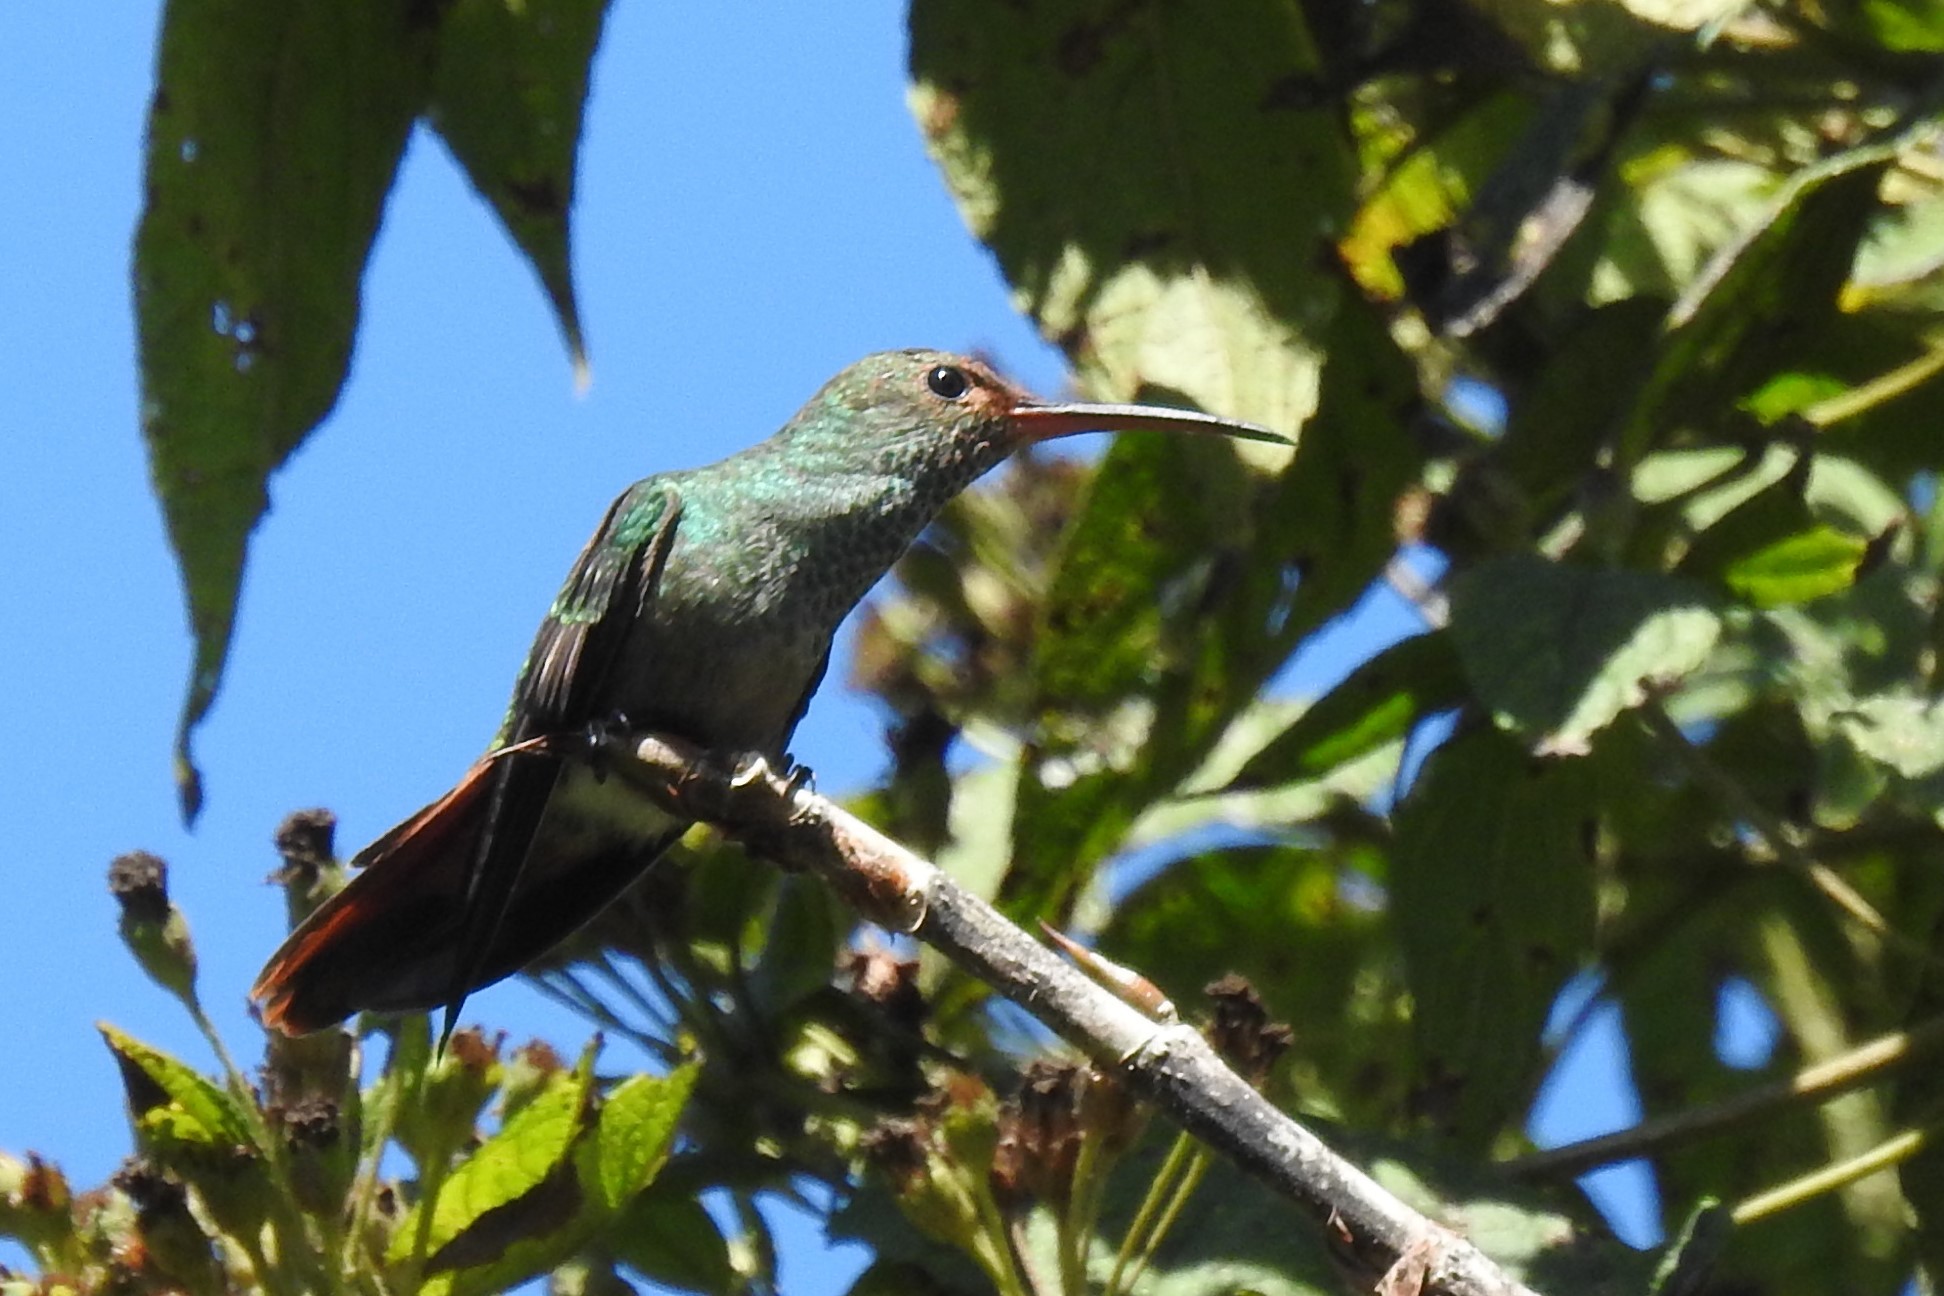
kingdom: Animalia
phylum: Chordata
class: Aves
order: Apodiformes
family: Trochilidae
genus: Amazilia
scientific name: Amazilia tzacatl
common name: Rufous-tailed hummingbird
